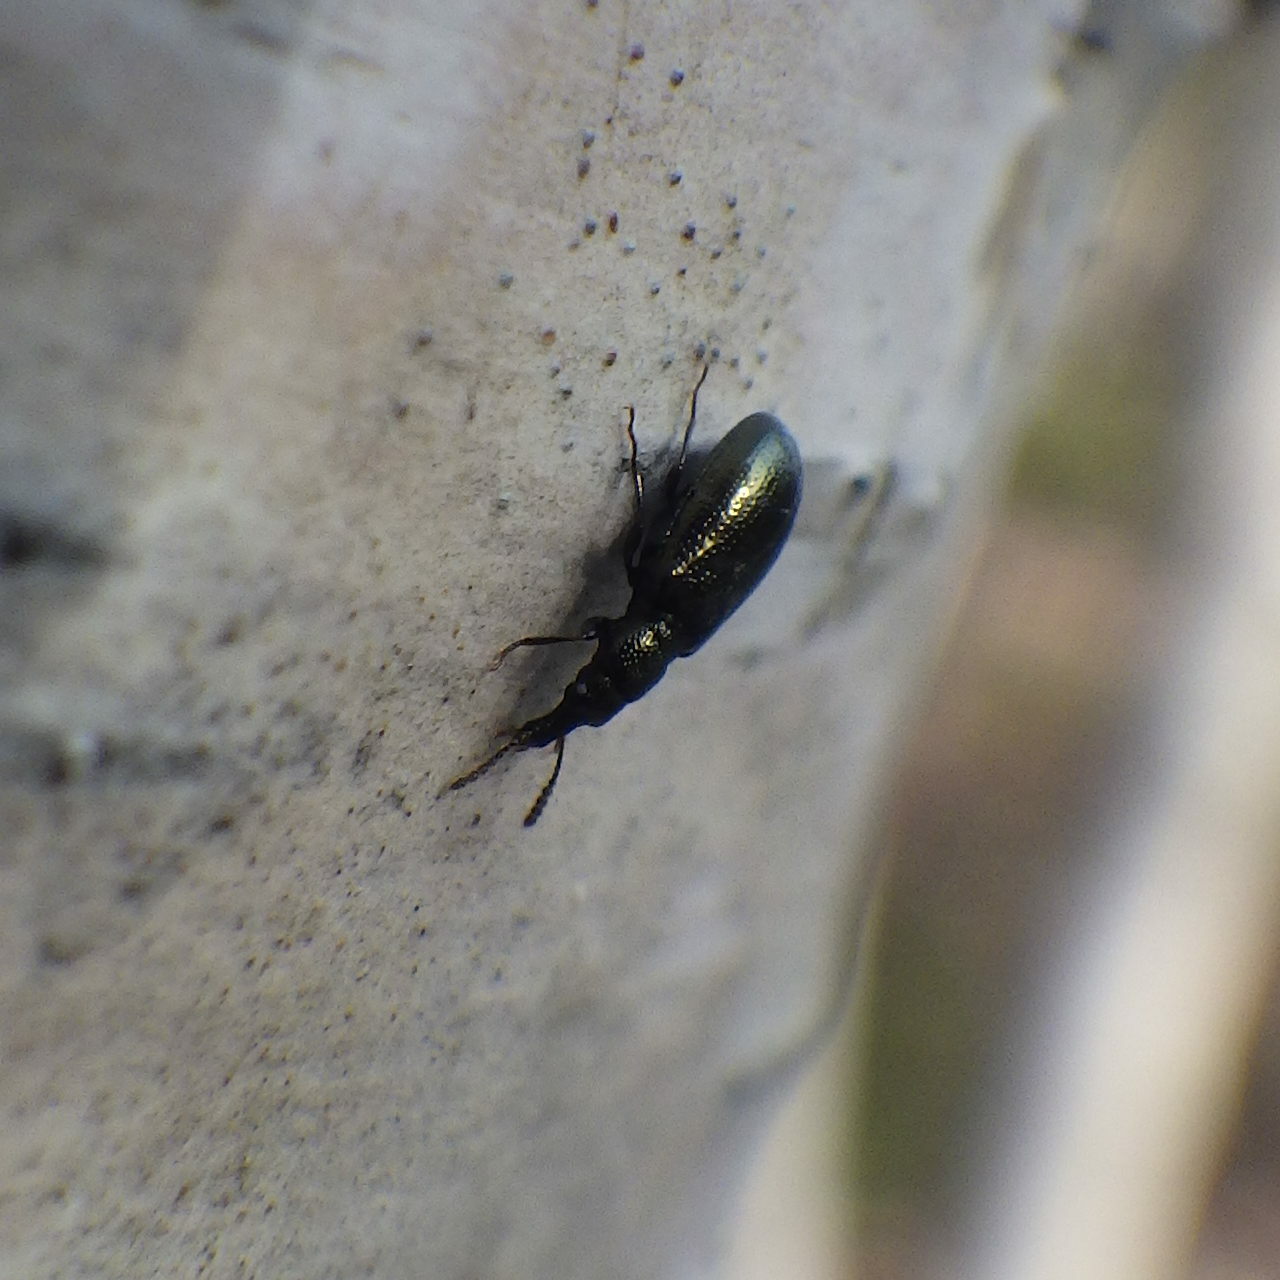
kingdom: Animalia
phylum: Arthropoda
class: Insecta
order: Coleoptera
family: Salpingidae
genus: Salpingus
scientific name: Salpingus
